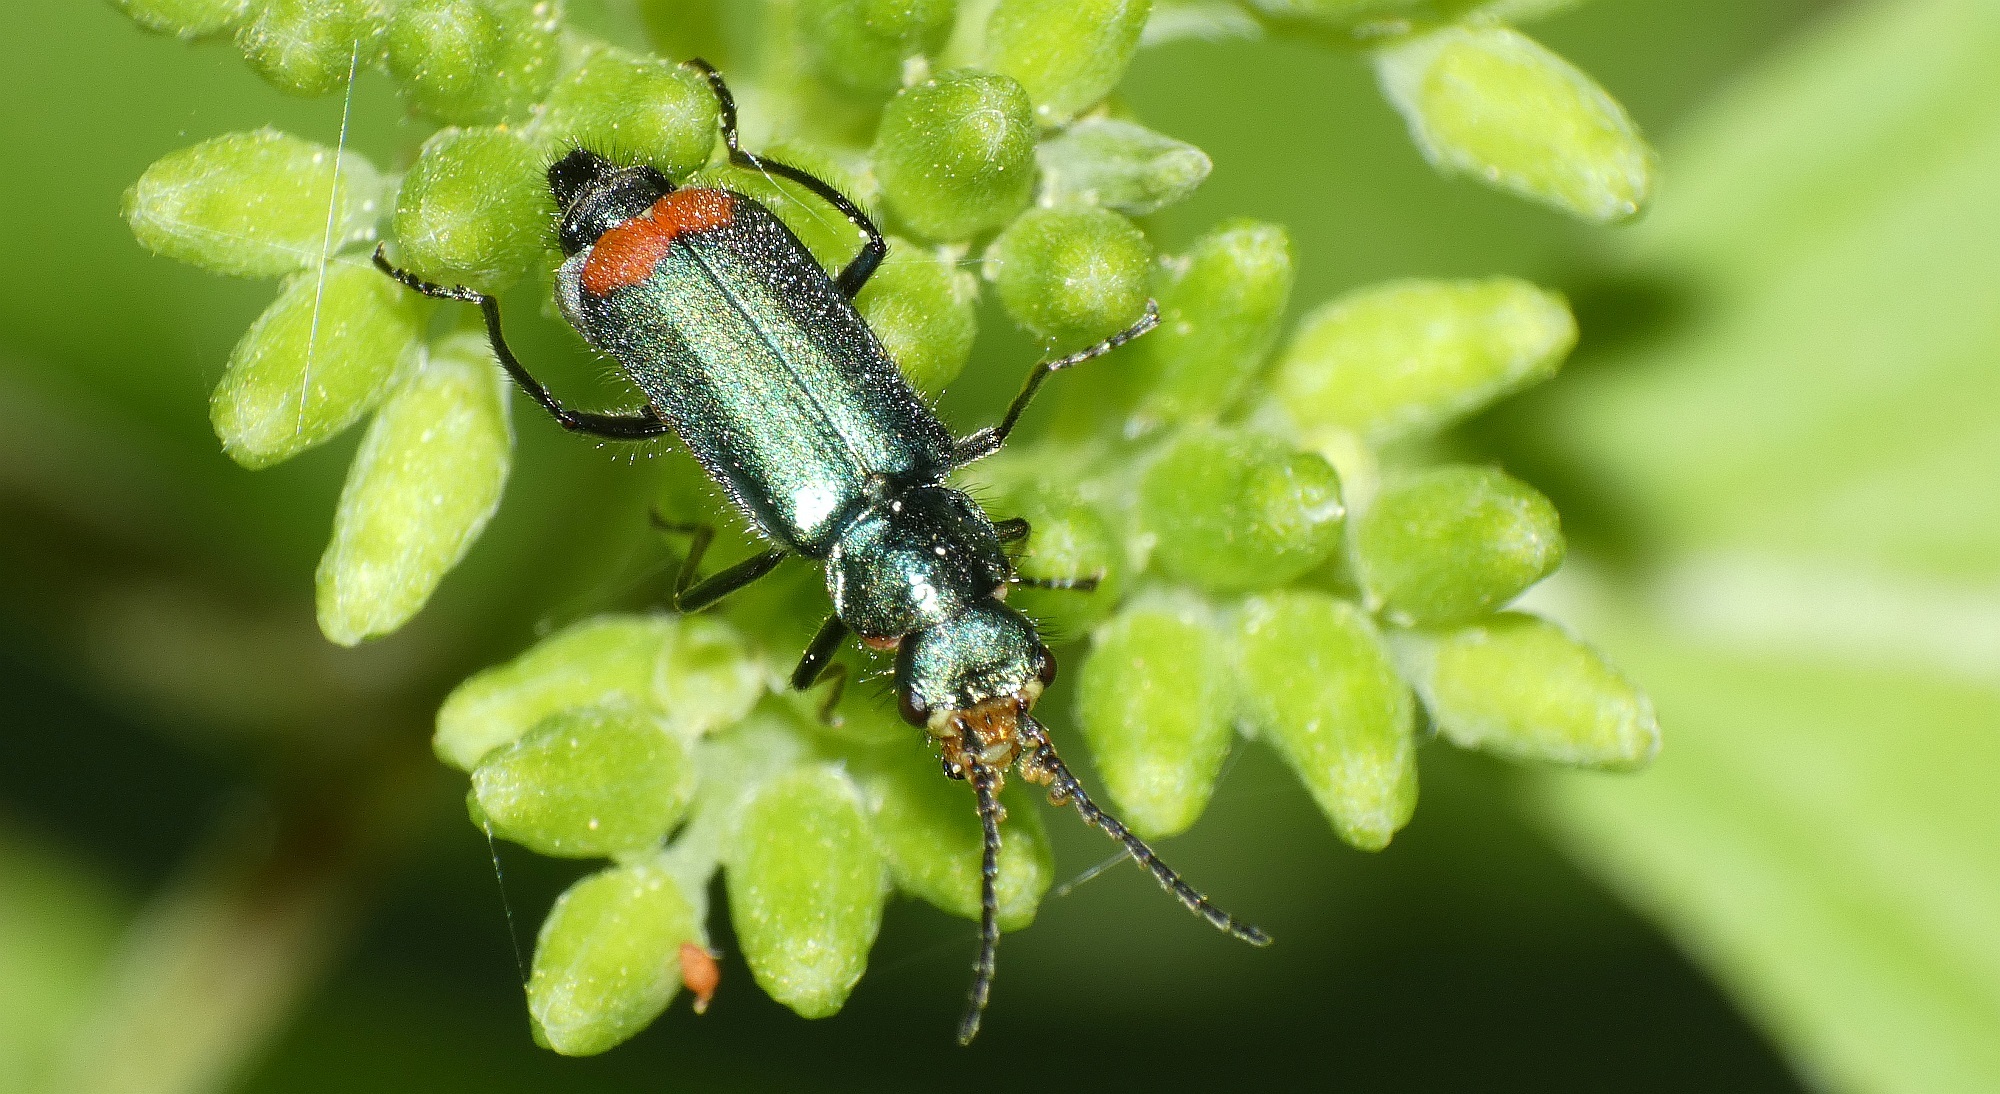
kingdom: Animalia
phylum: Arthropoda
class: Insecta
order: Coleoptera
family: Melyridae
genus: Malachius
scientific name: Malachius bipustulatus
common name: Malachite beetle
